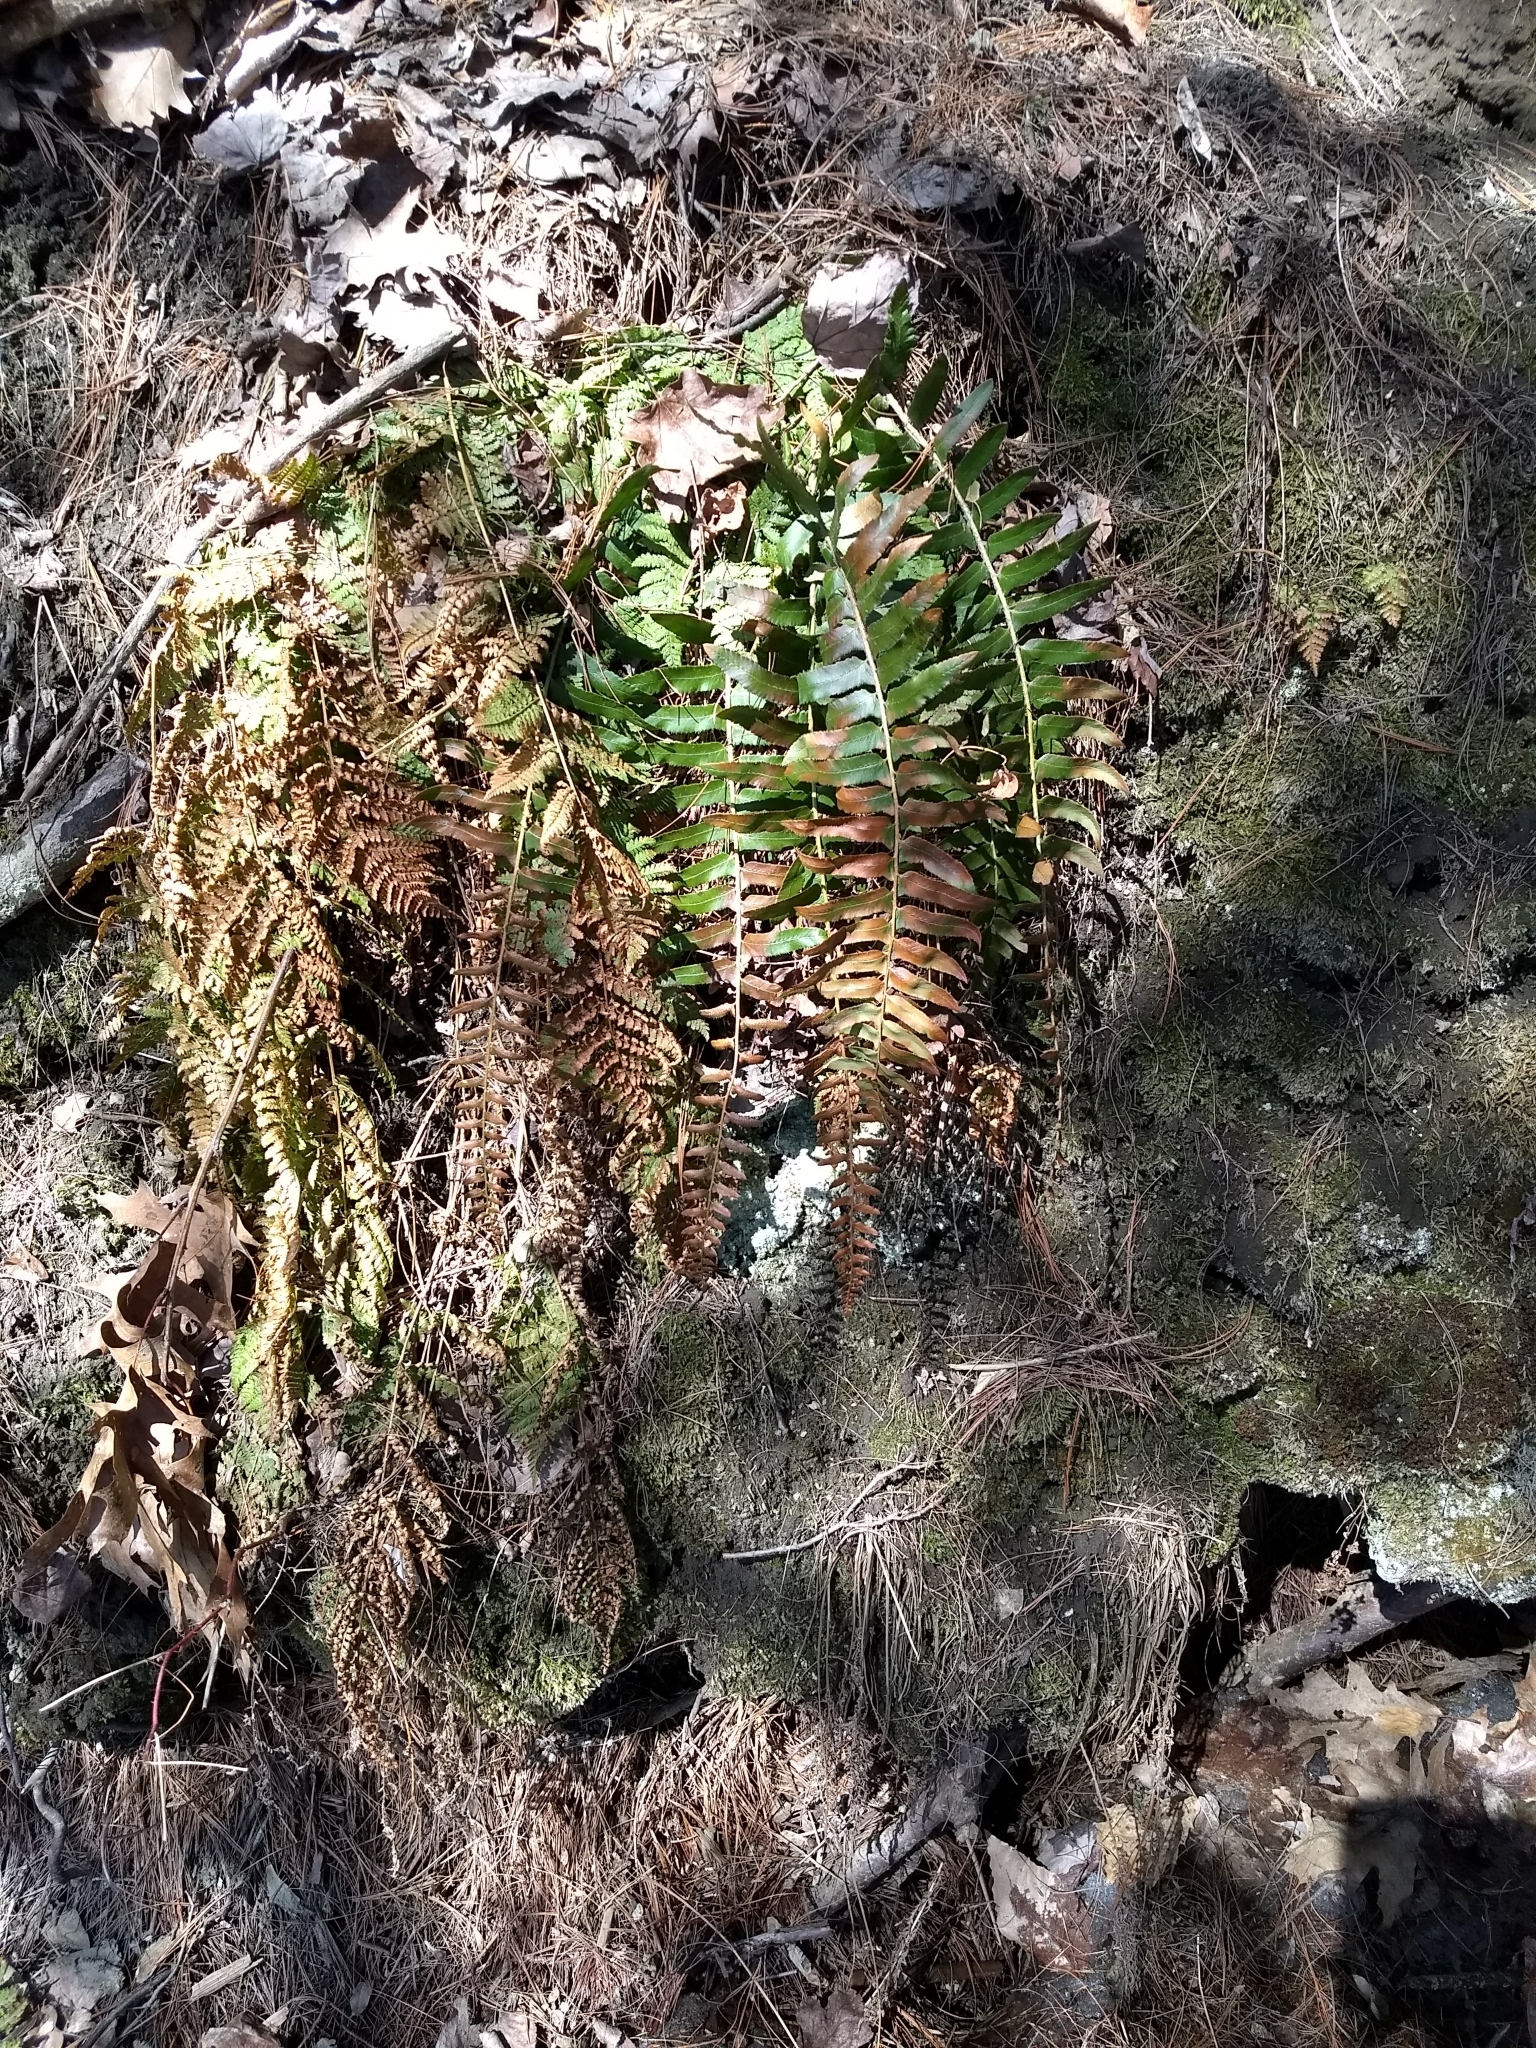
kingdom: Plantae
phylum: Tracheophyta
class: Polypodiopsida
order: Polypodiales
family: Dryopteridaceae
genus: Polystichum
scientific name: Polystichum acrostichoides
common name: Christmas fern
